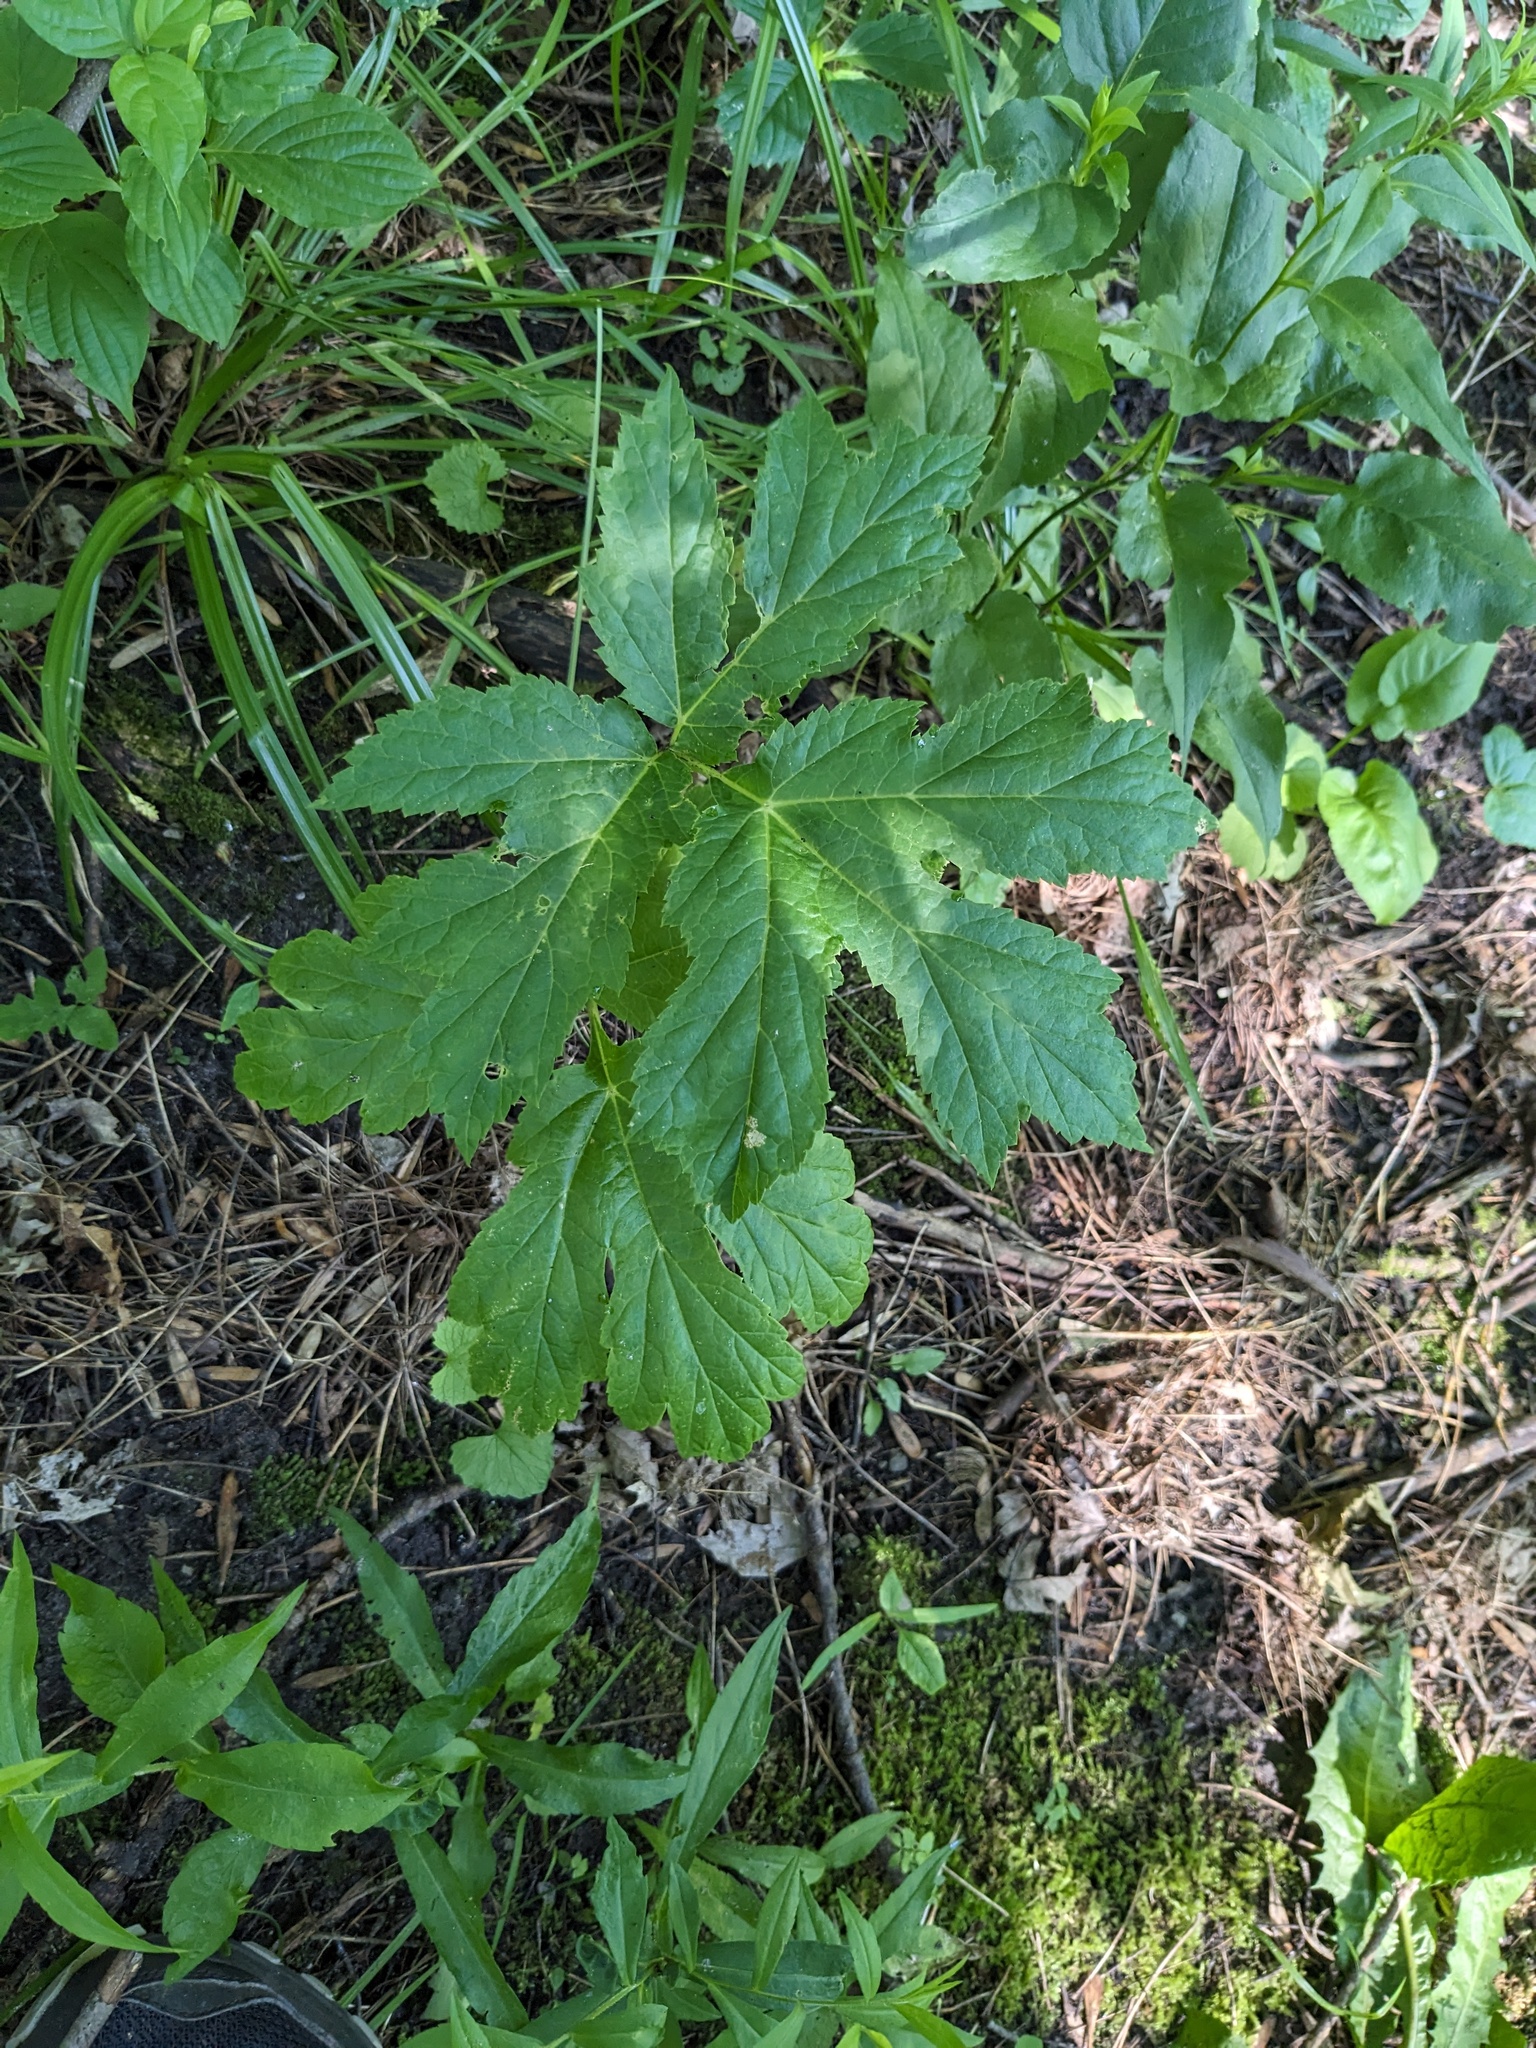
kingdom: Plantae
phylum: Tracheophyta
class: Magnoliopsida
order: Apiales
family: Apiaceae
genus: Heracleum
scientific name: Heracleum mantegazzianum
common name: Giant hogweed
